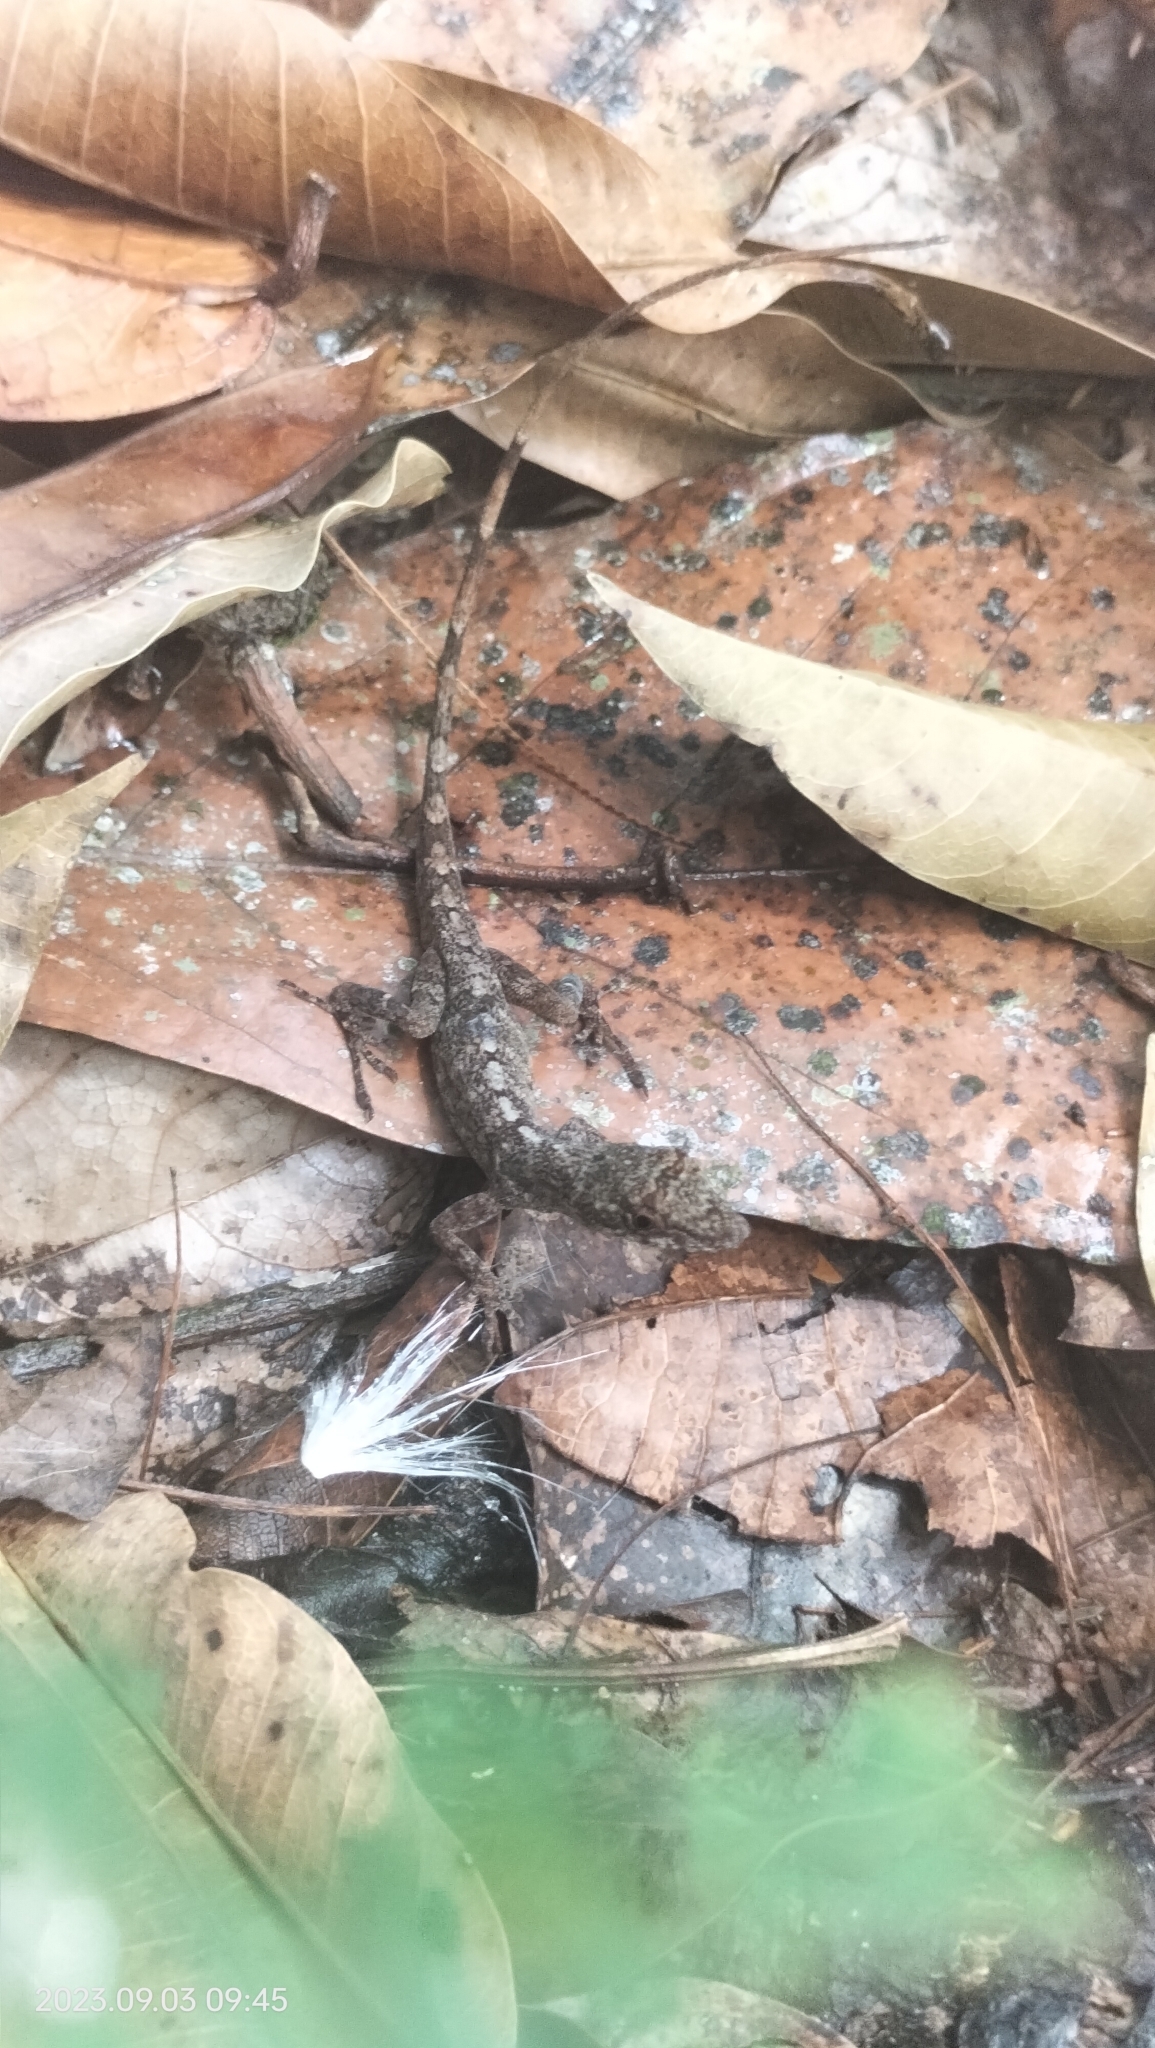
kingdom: Animalia
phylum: Chordata
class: Squamata
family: Dactyloidae
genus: Anolis
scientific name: Anolis fuscoauratus
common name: Brown-eared anole
